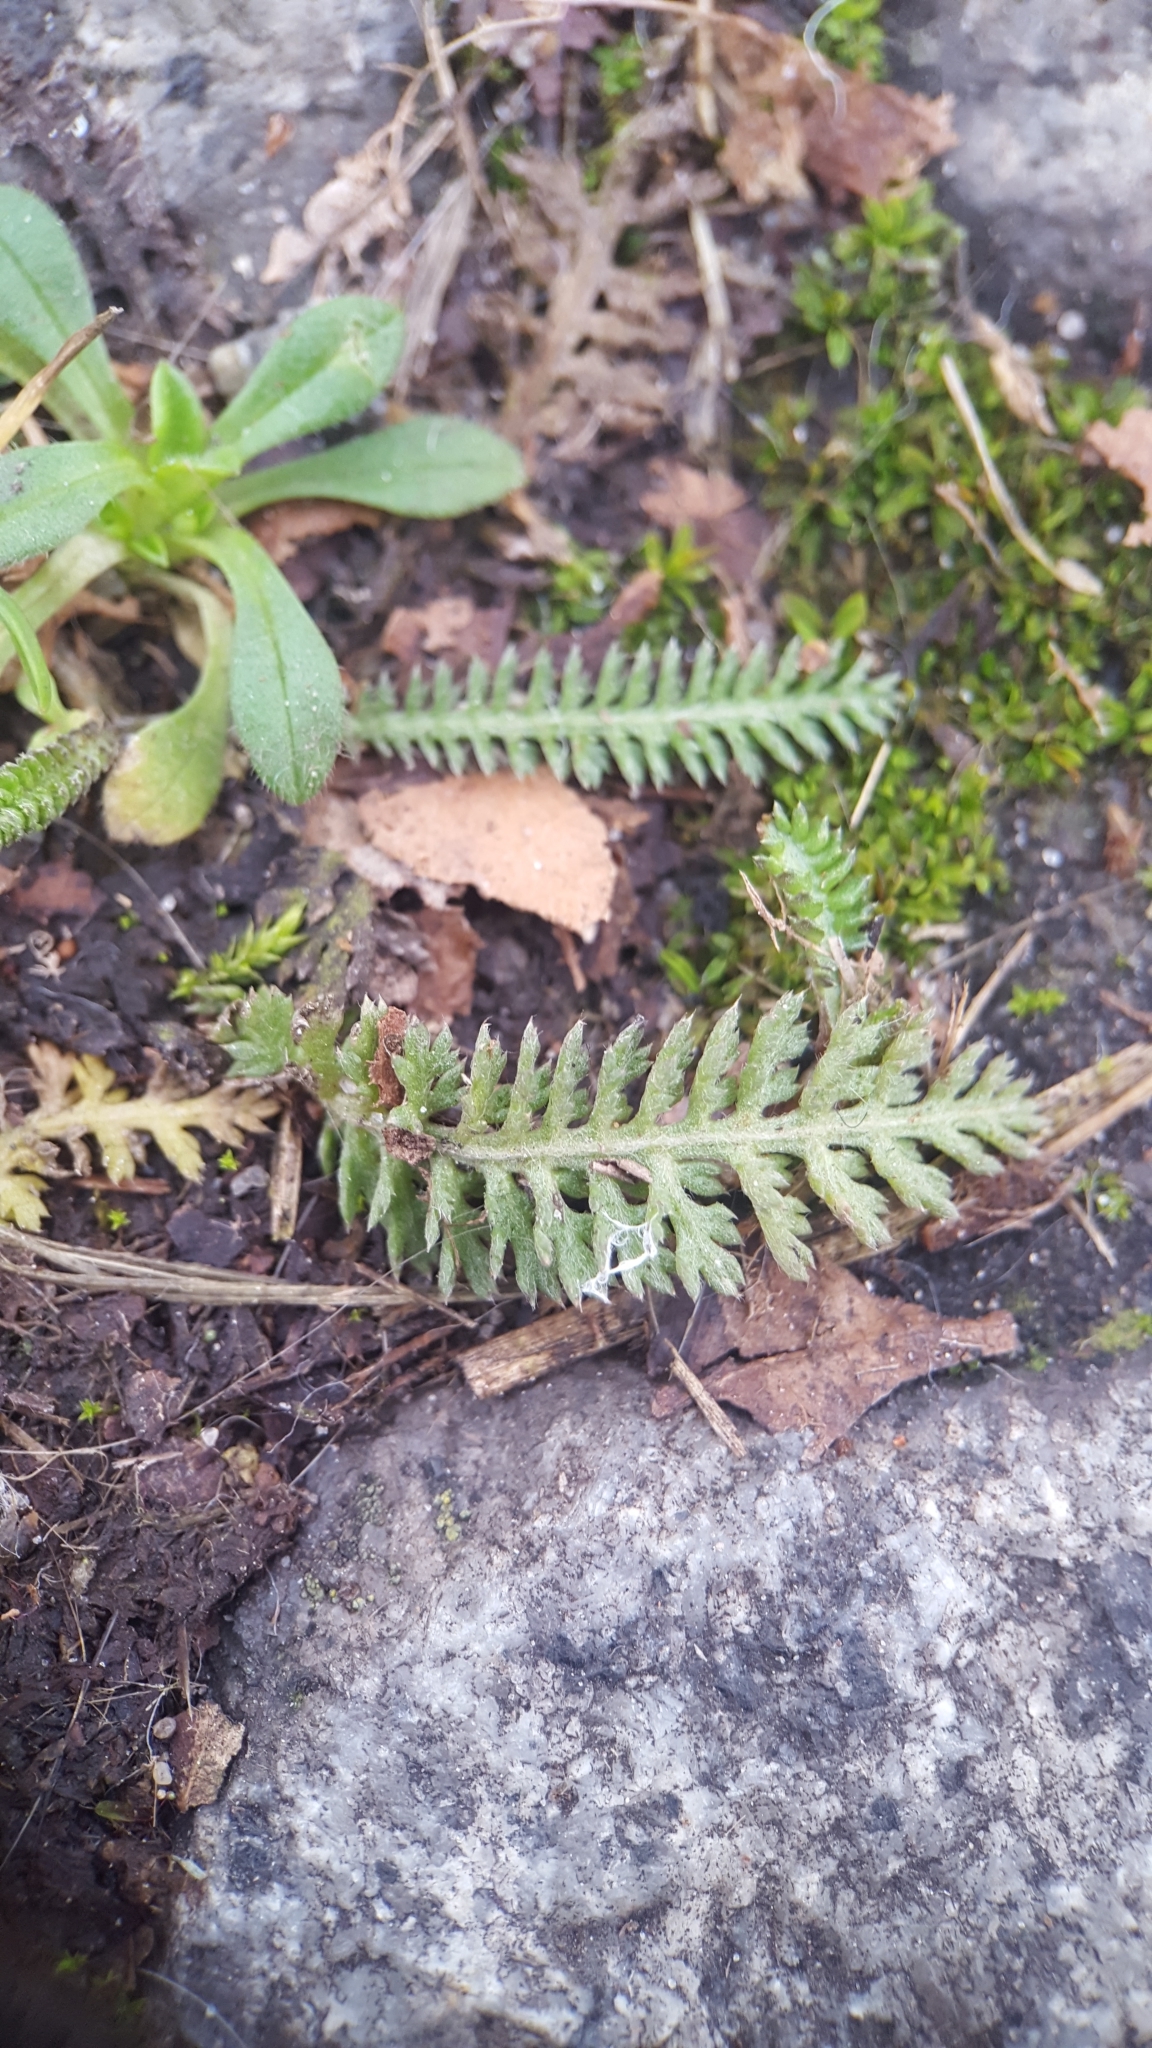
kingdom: Plantae
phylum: Tracheophyta
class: Magnoliopsida
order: Asterales
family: Asteraceae
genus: Achillea
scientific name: Achillea millefolium
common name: Yarrow
